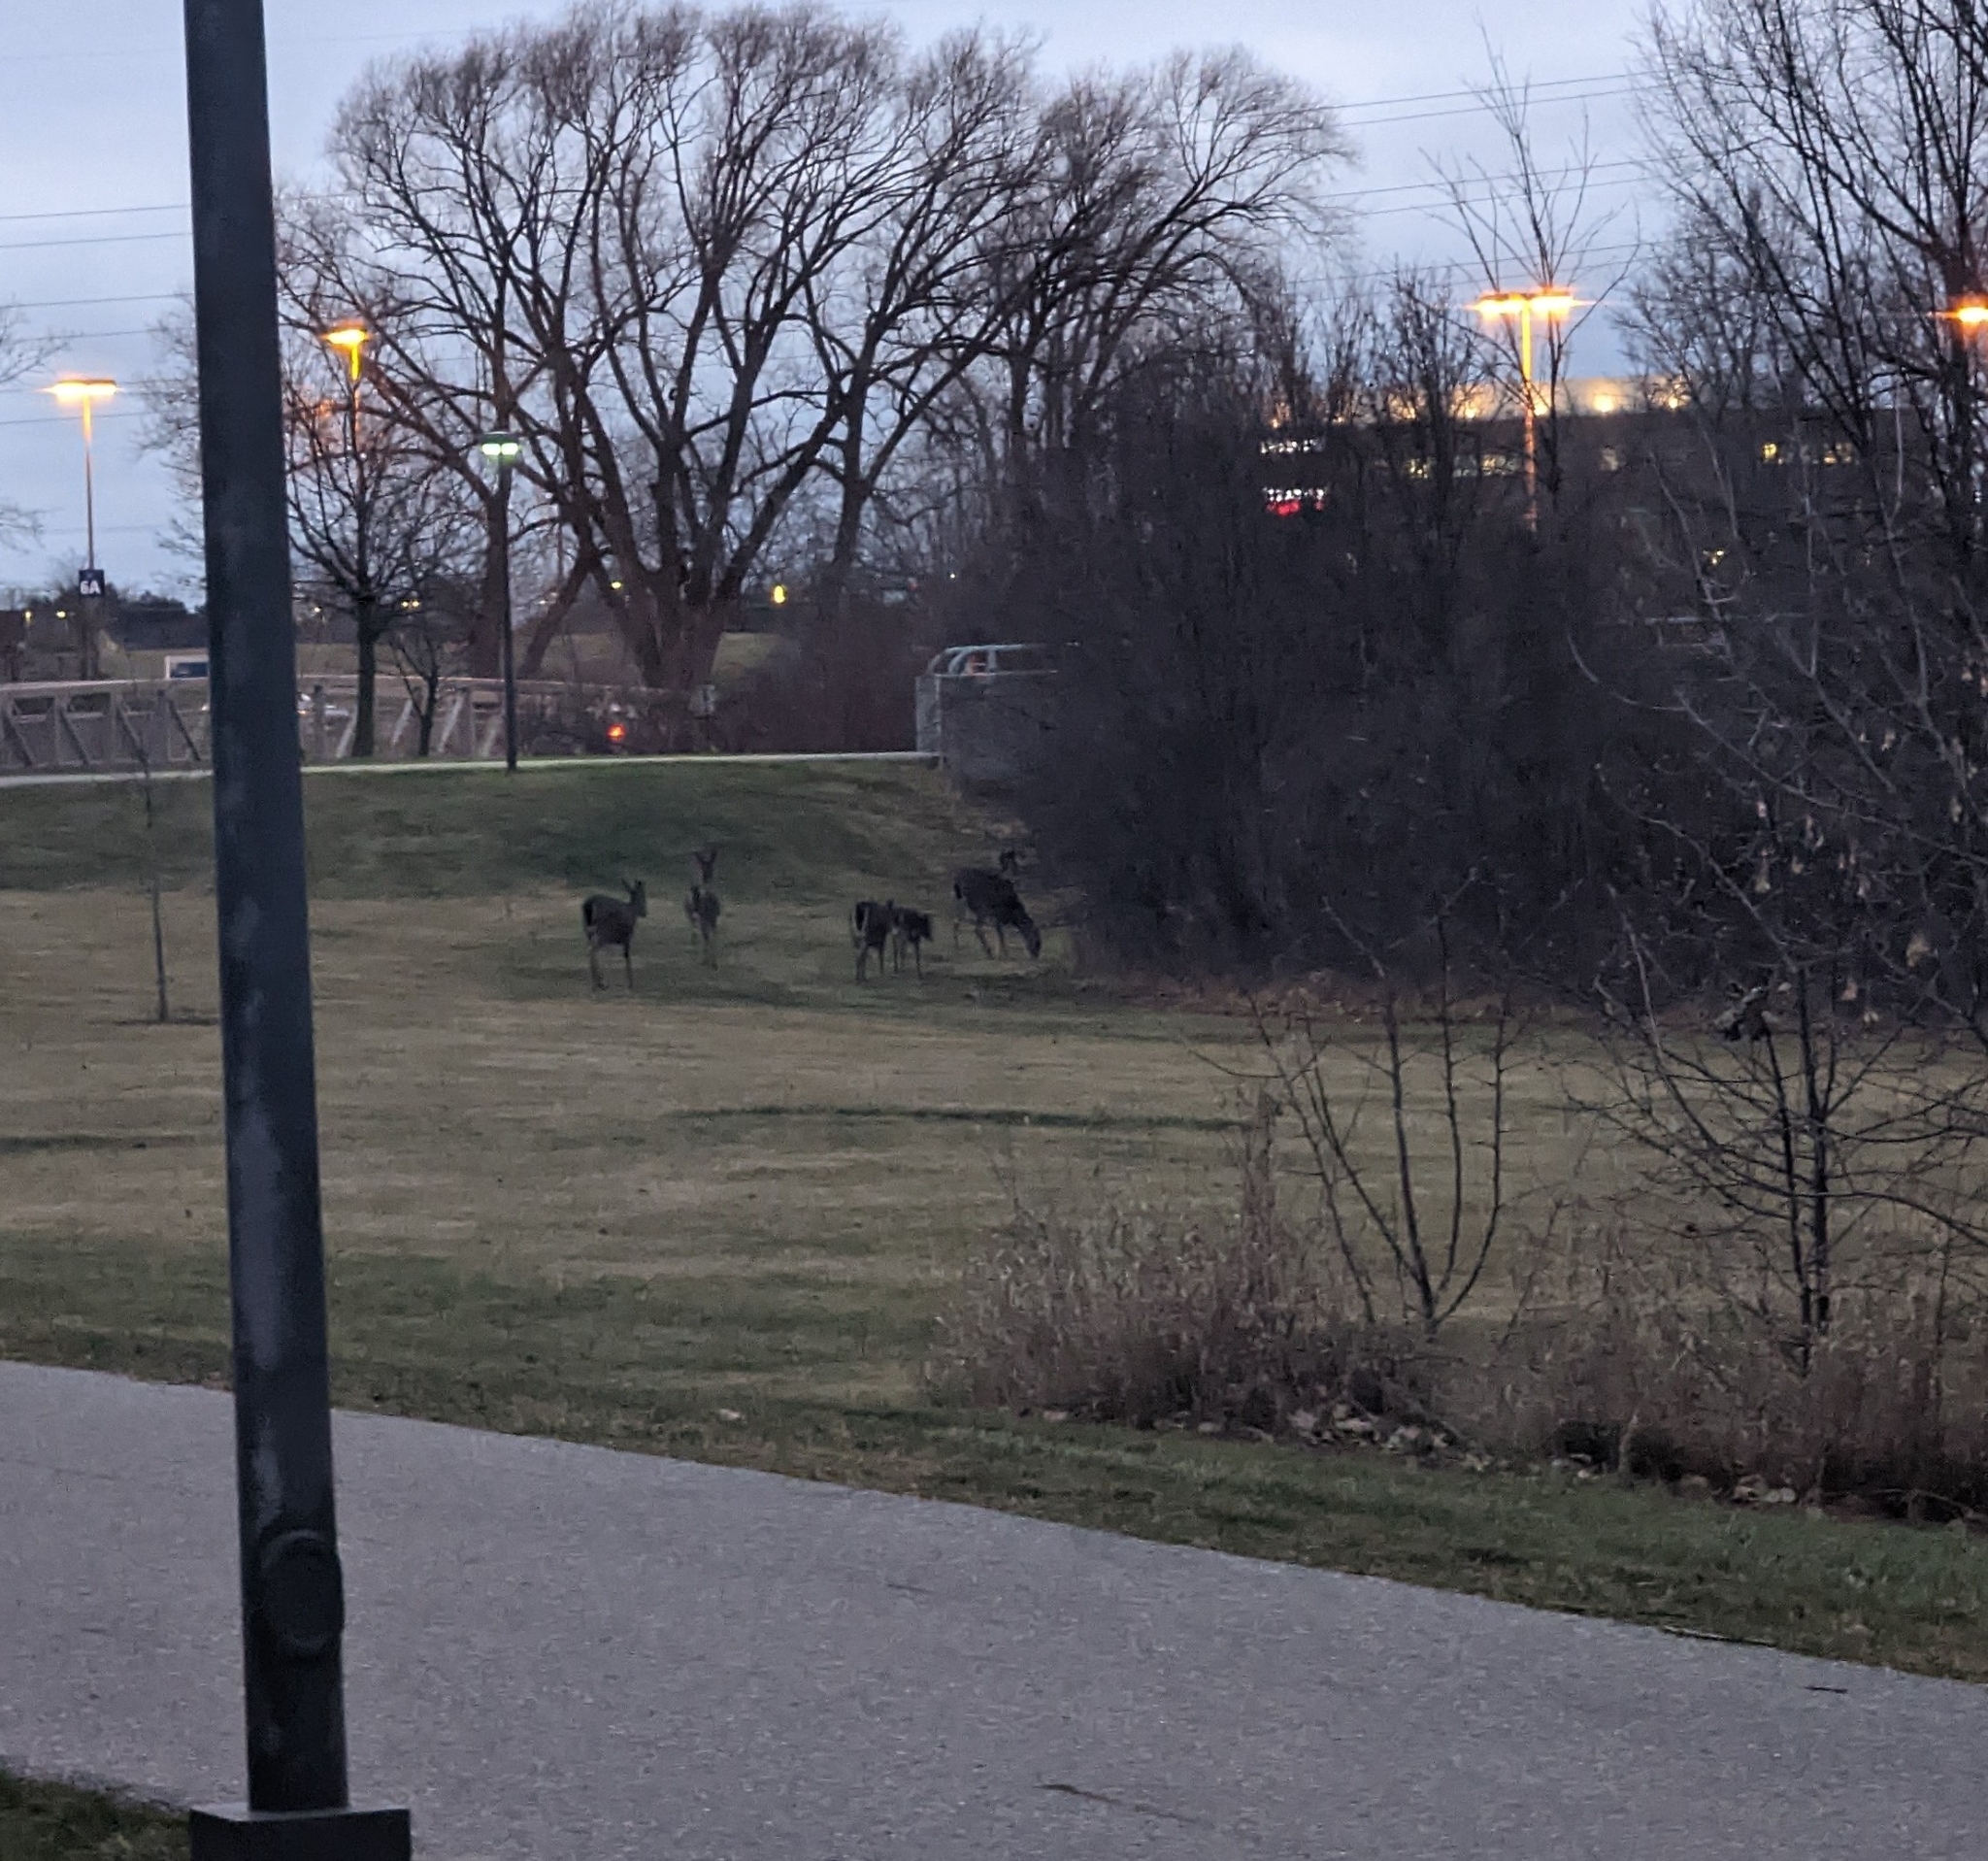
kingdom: Animalia
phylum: Chordata
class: Mammalia
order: Artiodactyla
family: Cervidae
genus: Odocoileus
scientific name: Odocoileus virginianus
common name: White-tailed deer
